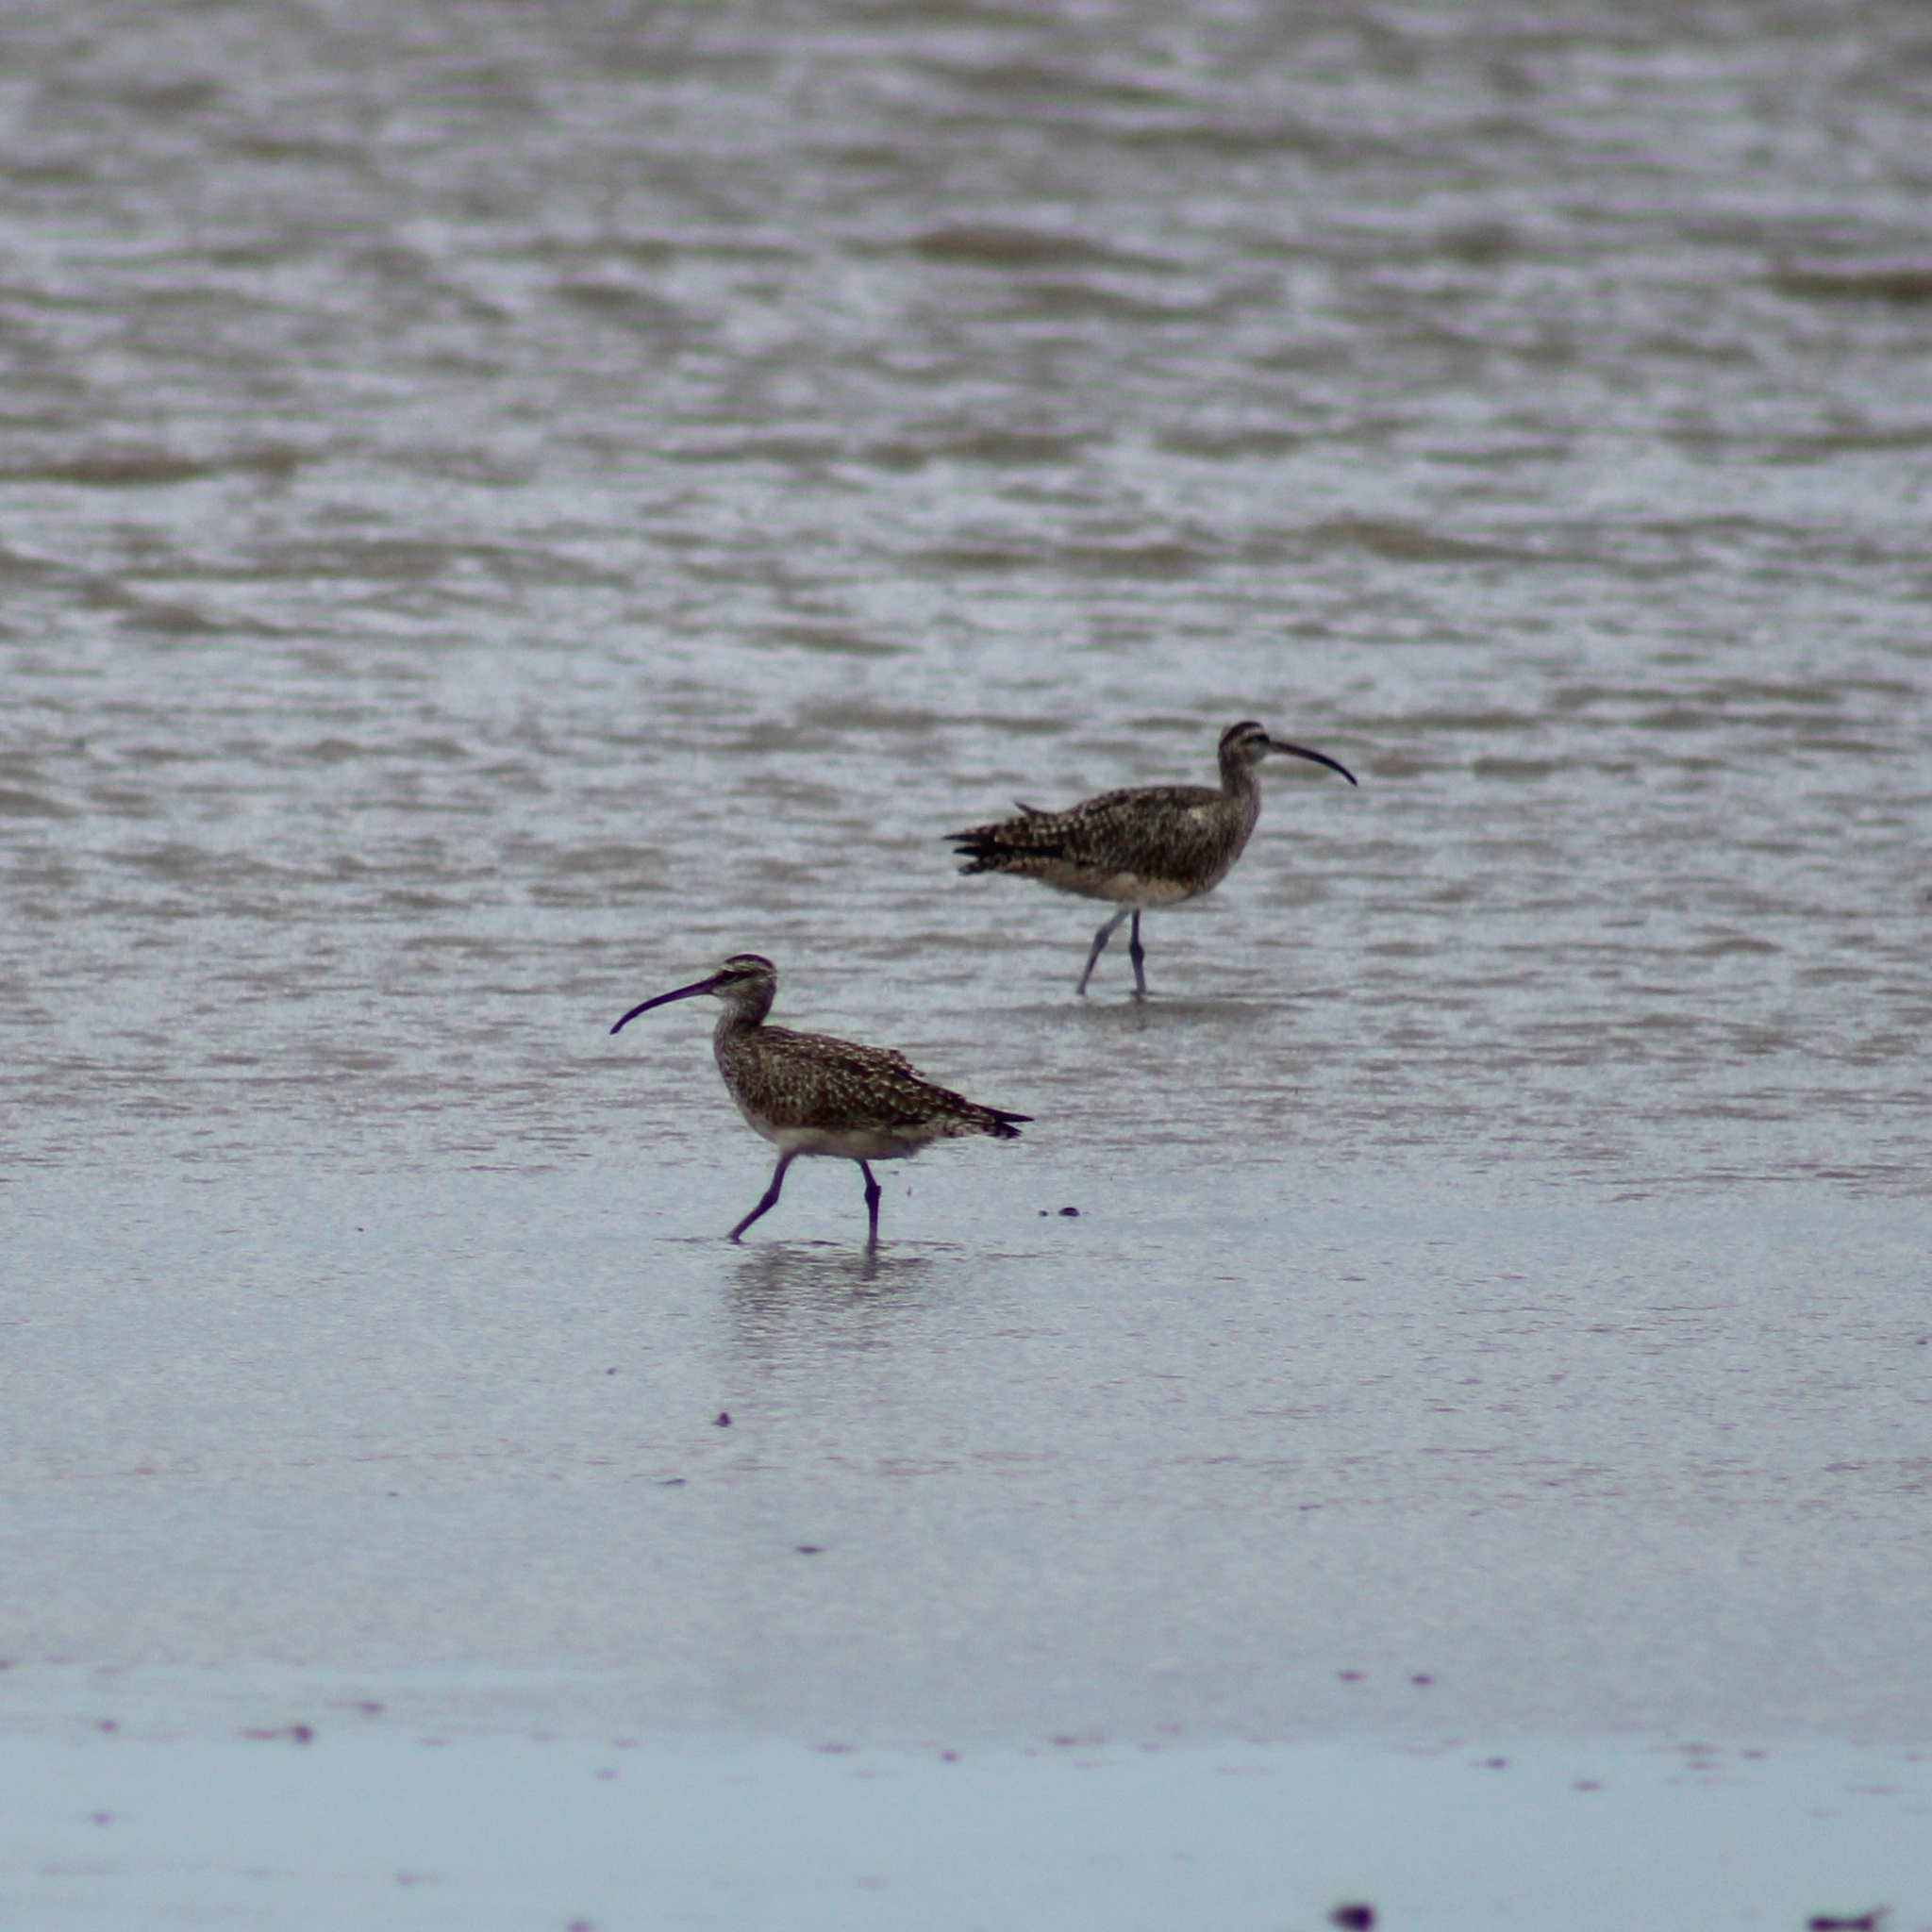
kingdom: Animalia
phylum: Chordata
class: Aves
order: Charadriiformes
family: Scolopacidae
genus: Numenius
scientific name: Numenius hudsonicus
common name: Hudsonian whimbrel
